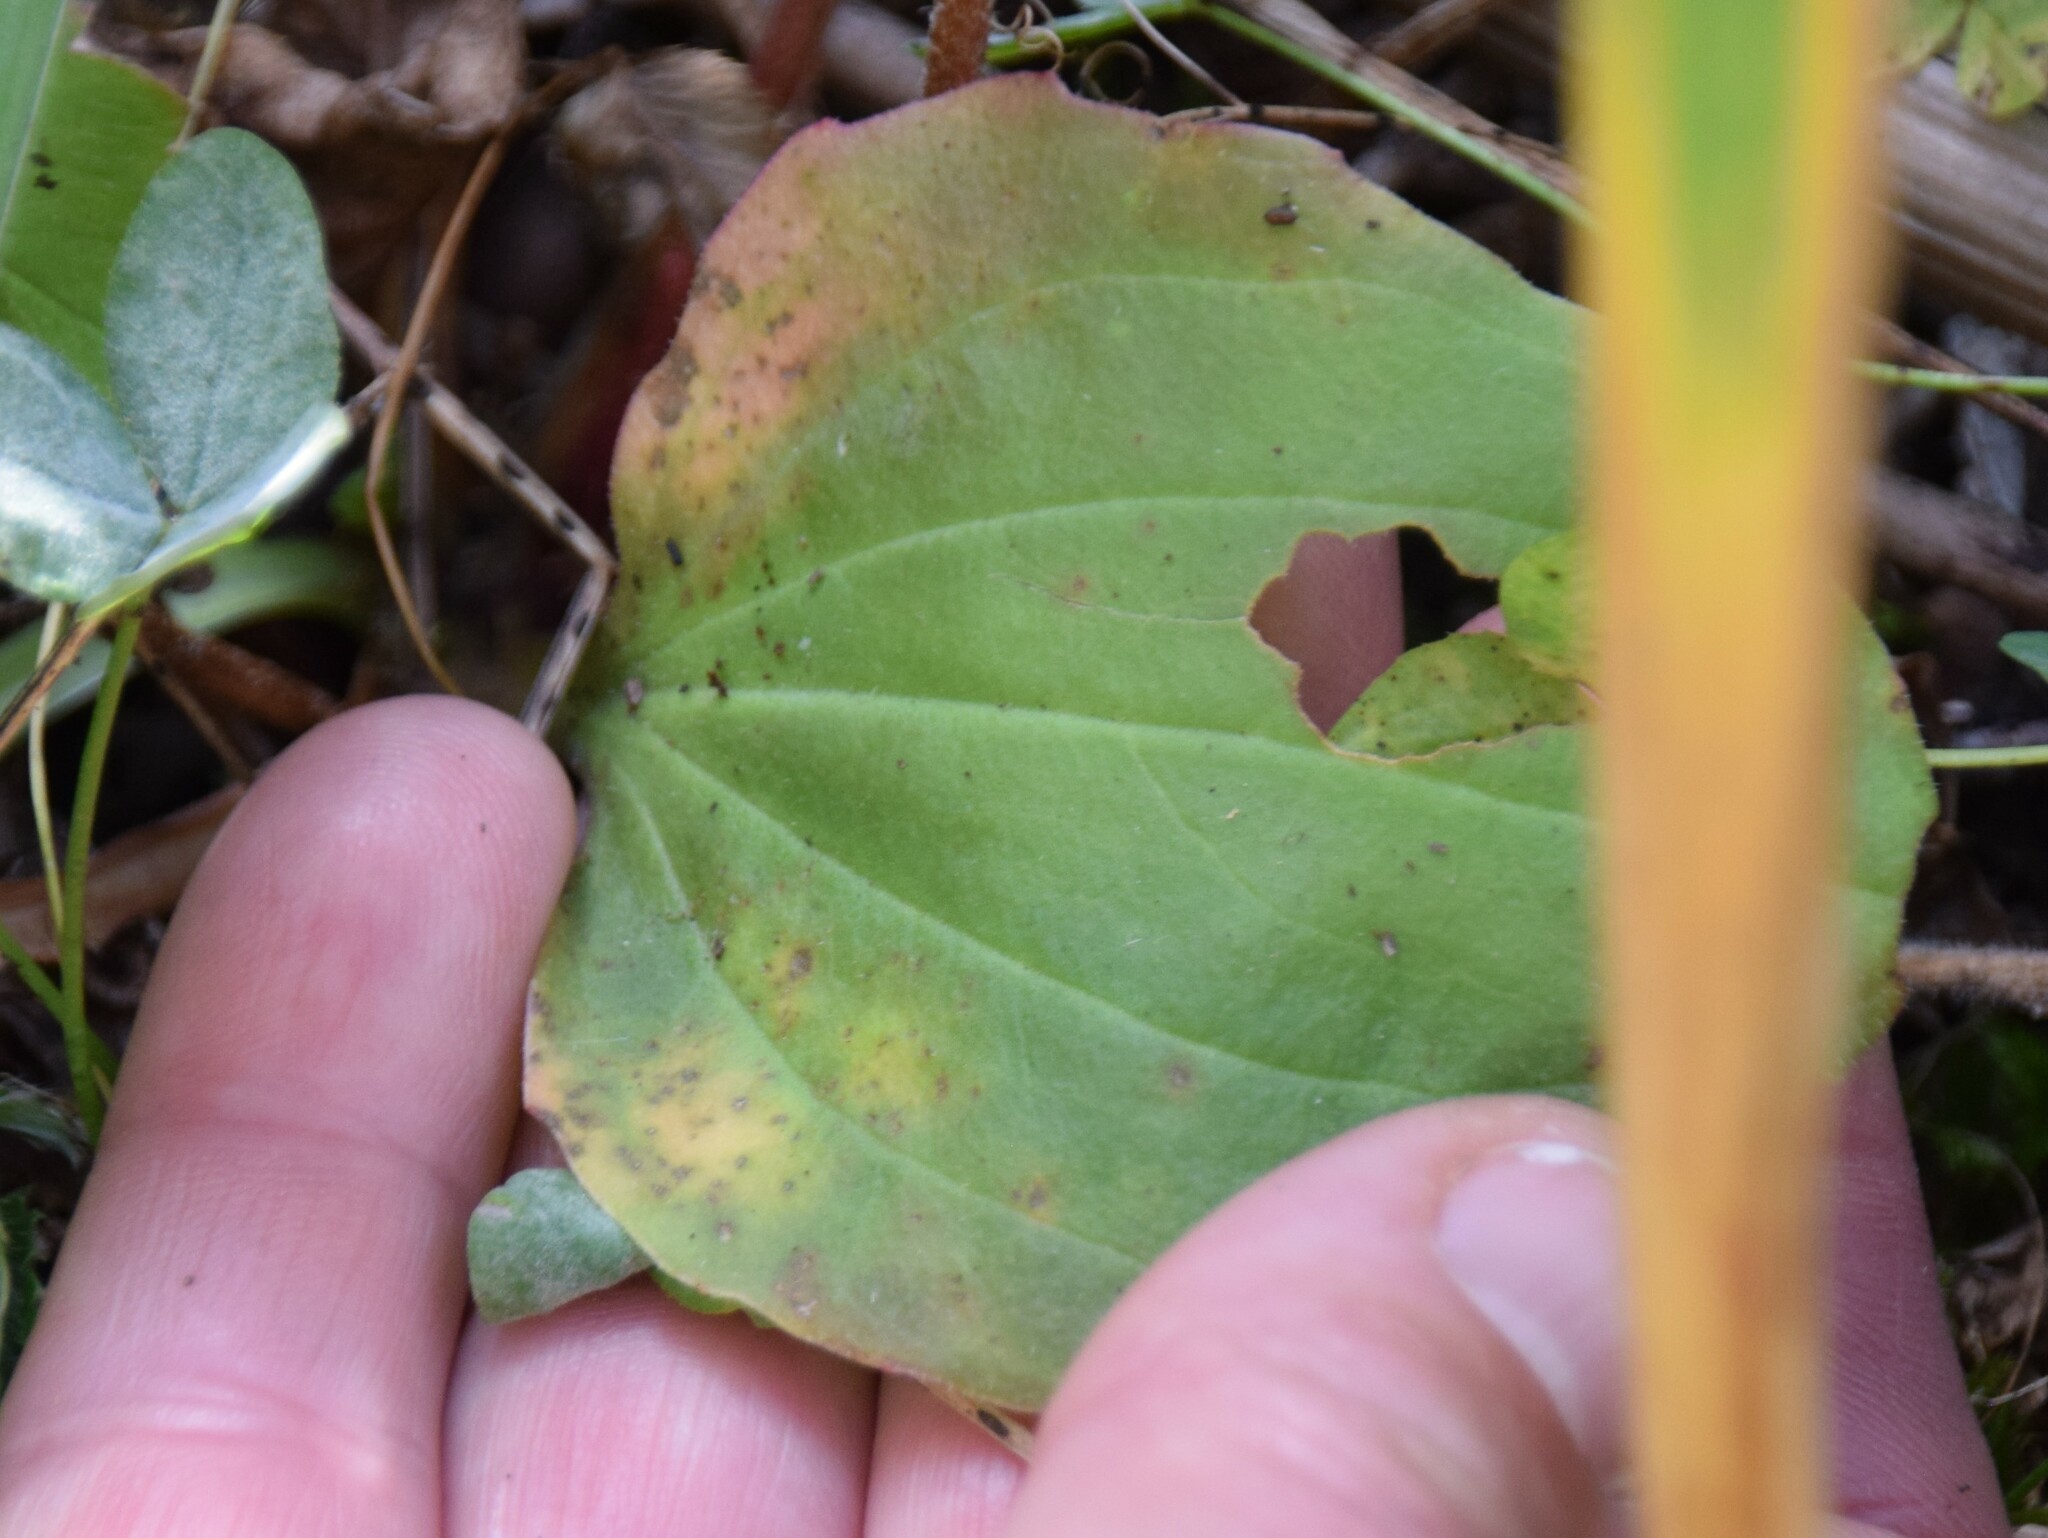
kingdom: Plantae
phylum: Tracheophyta
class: Magnoliopsida
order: Lamiales
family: Plantaginaceae
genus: Plantago
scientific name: Plantago major
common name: Common plantain
